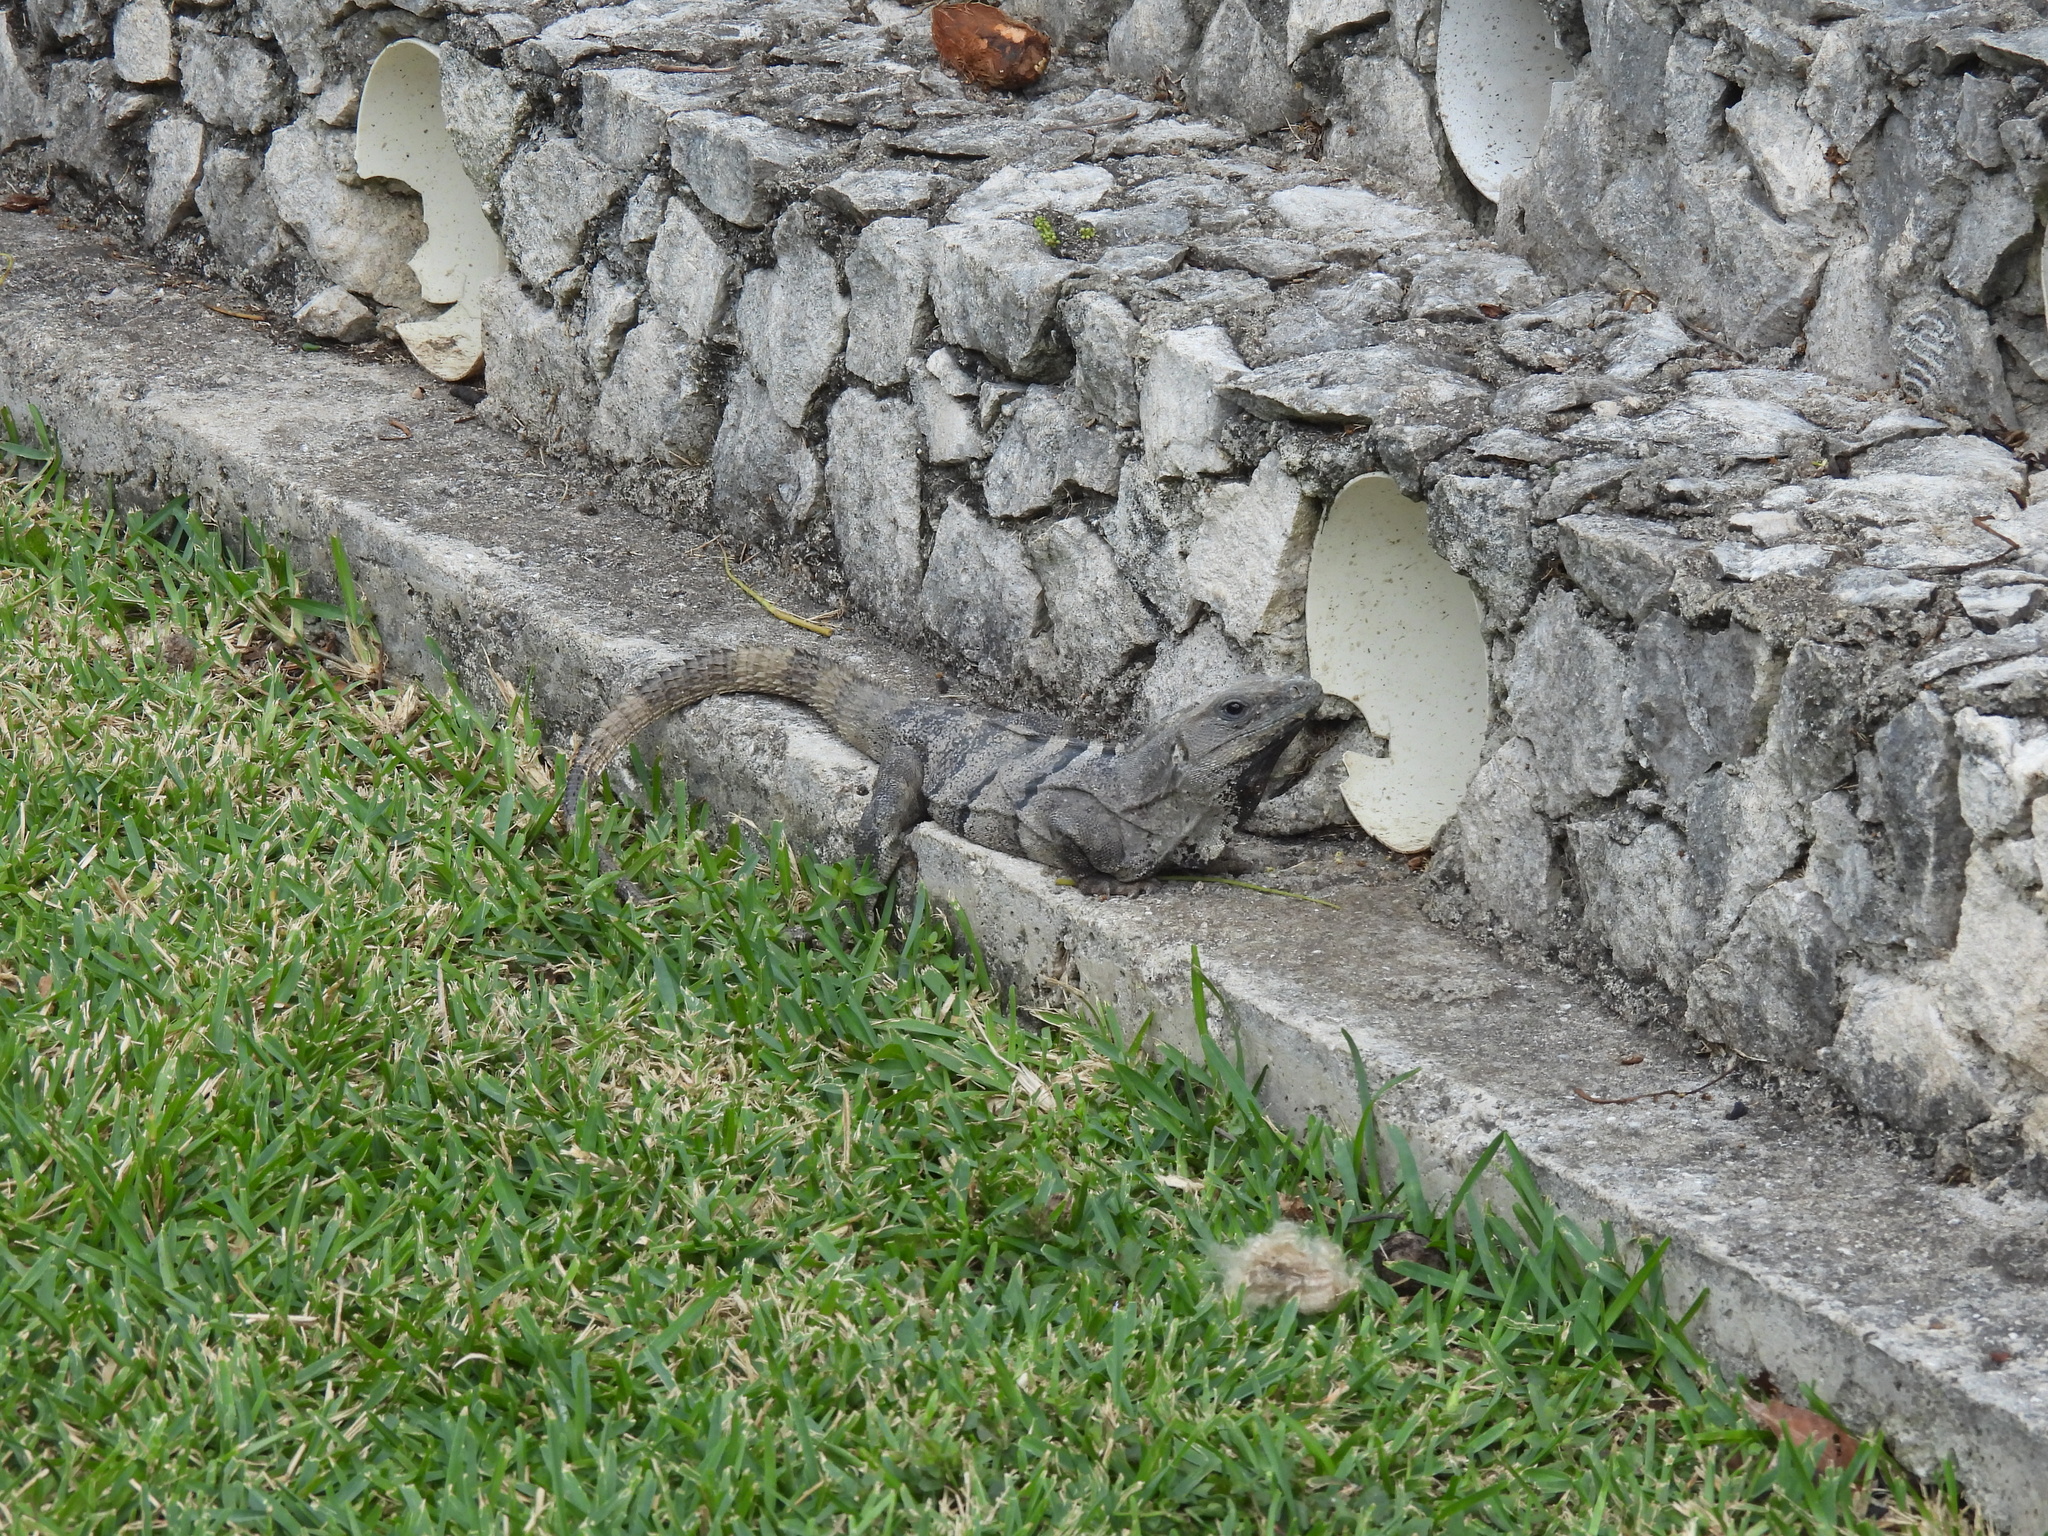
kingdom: Animalia
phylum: Chordata
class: Squamata
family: Iguanidae
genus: Ctenosaura
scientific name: Ctenosaura similis
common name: Black spiny-tailed iguana
